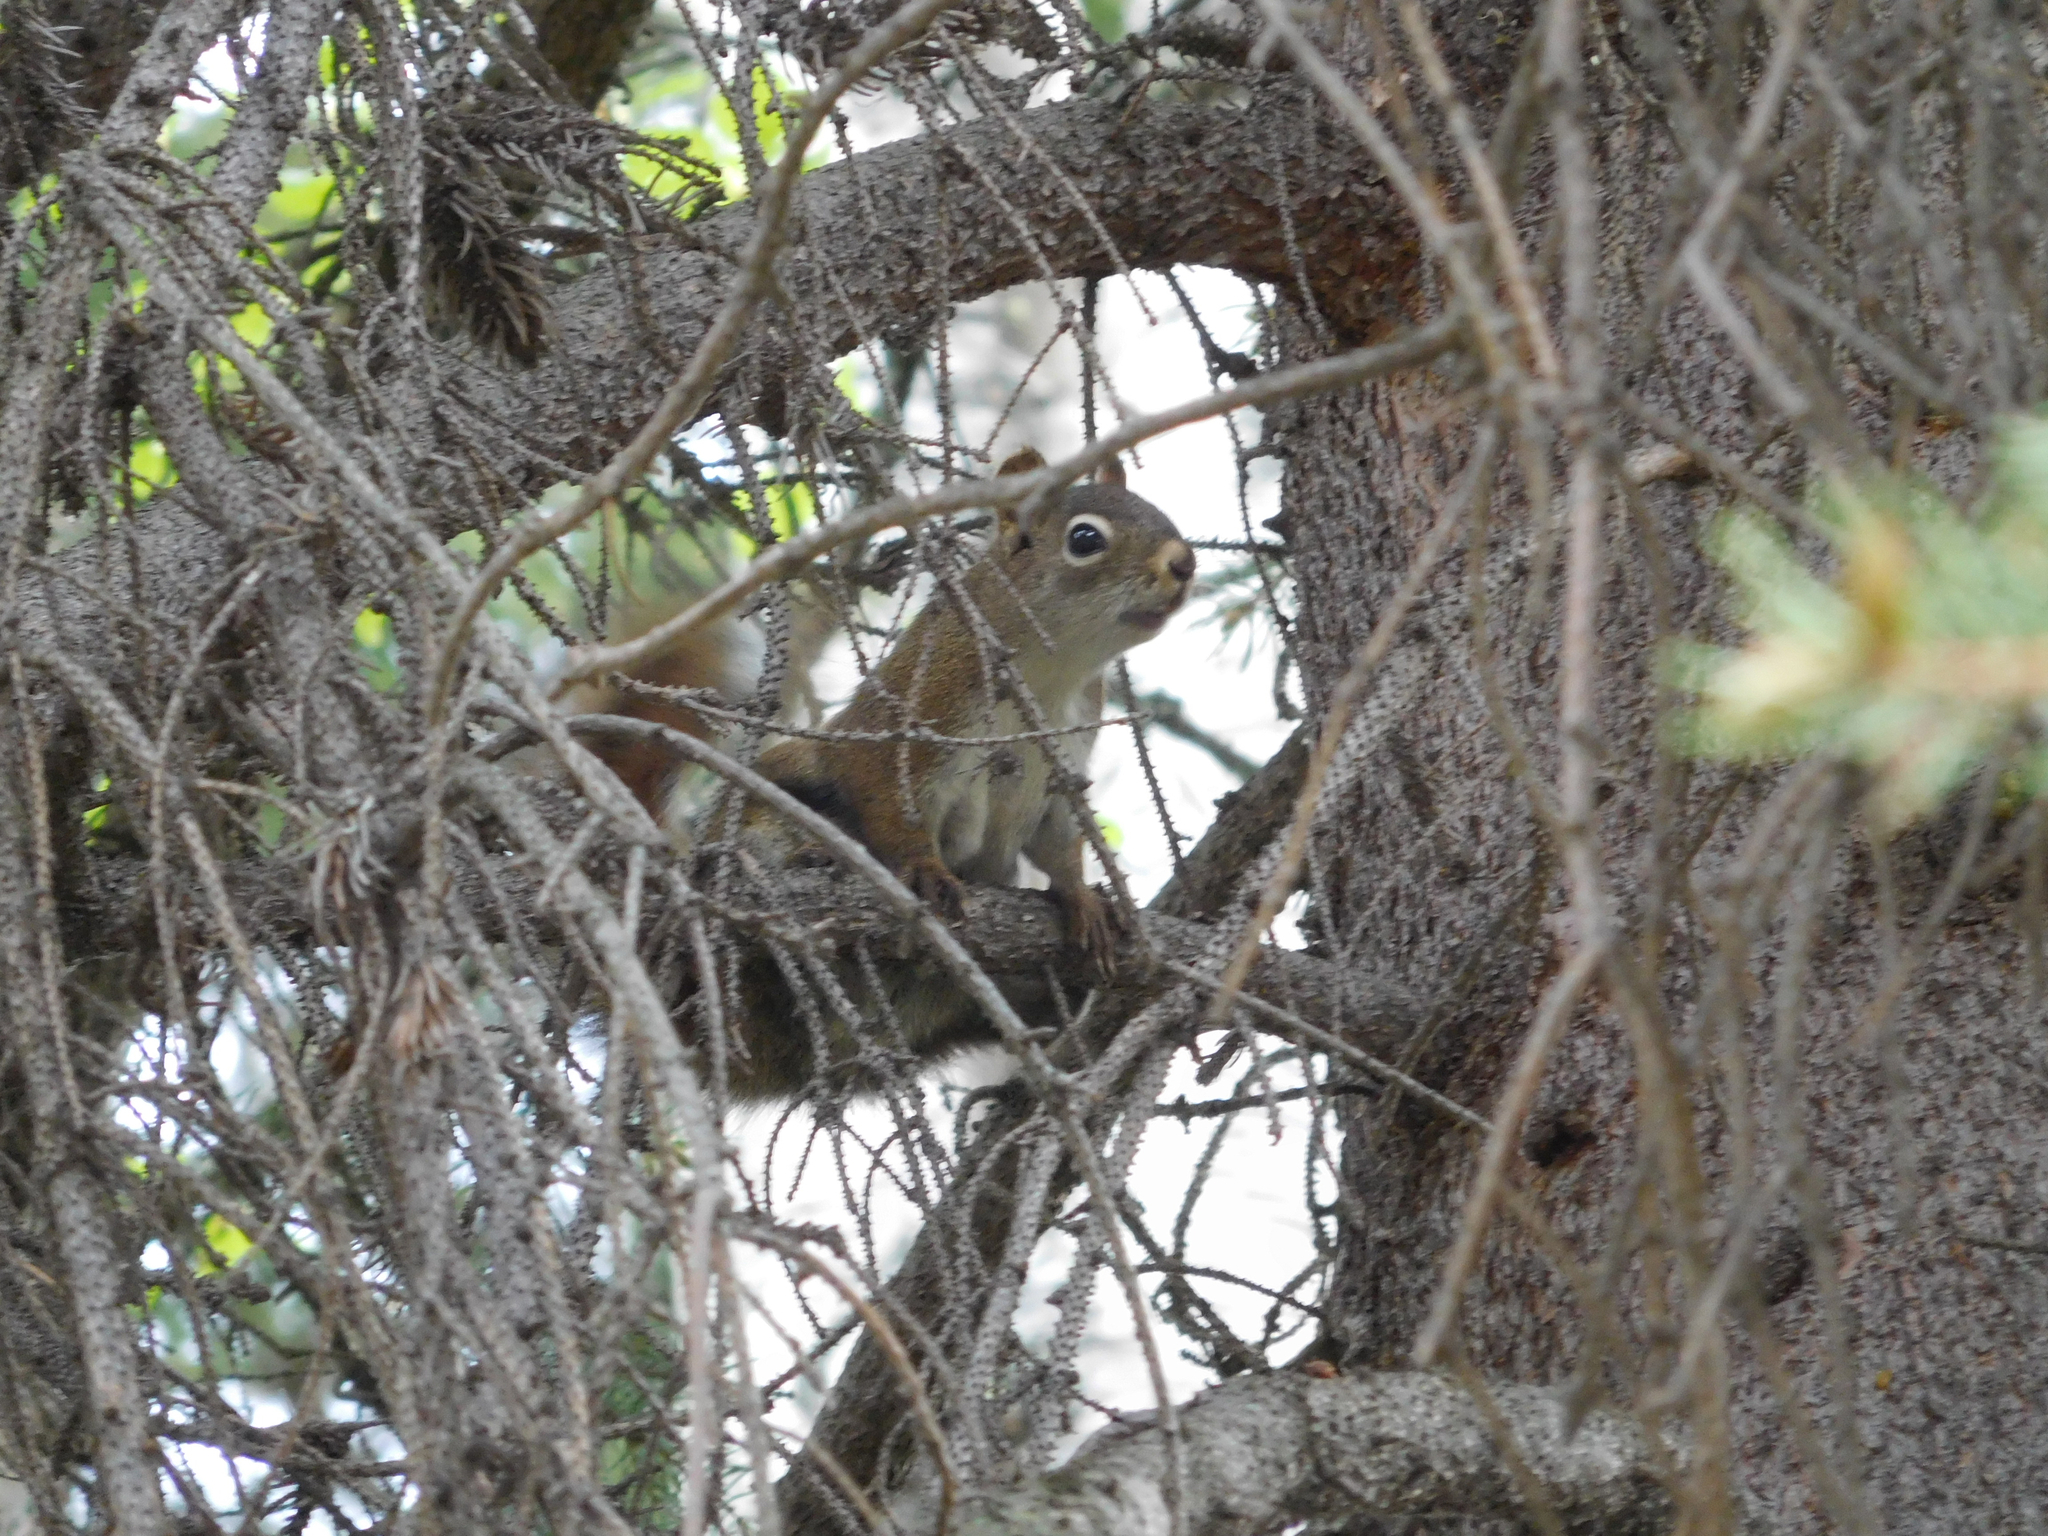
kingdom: Animalia
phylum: Chordata
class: Mammalia
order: Rodentia
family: Sciuridae
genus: Tamiasciurus
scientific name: Tamiasciurus hudsonicus
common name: Red squirrel
